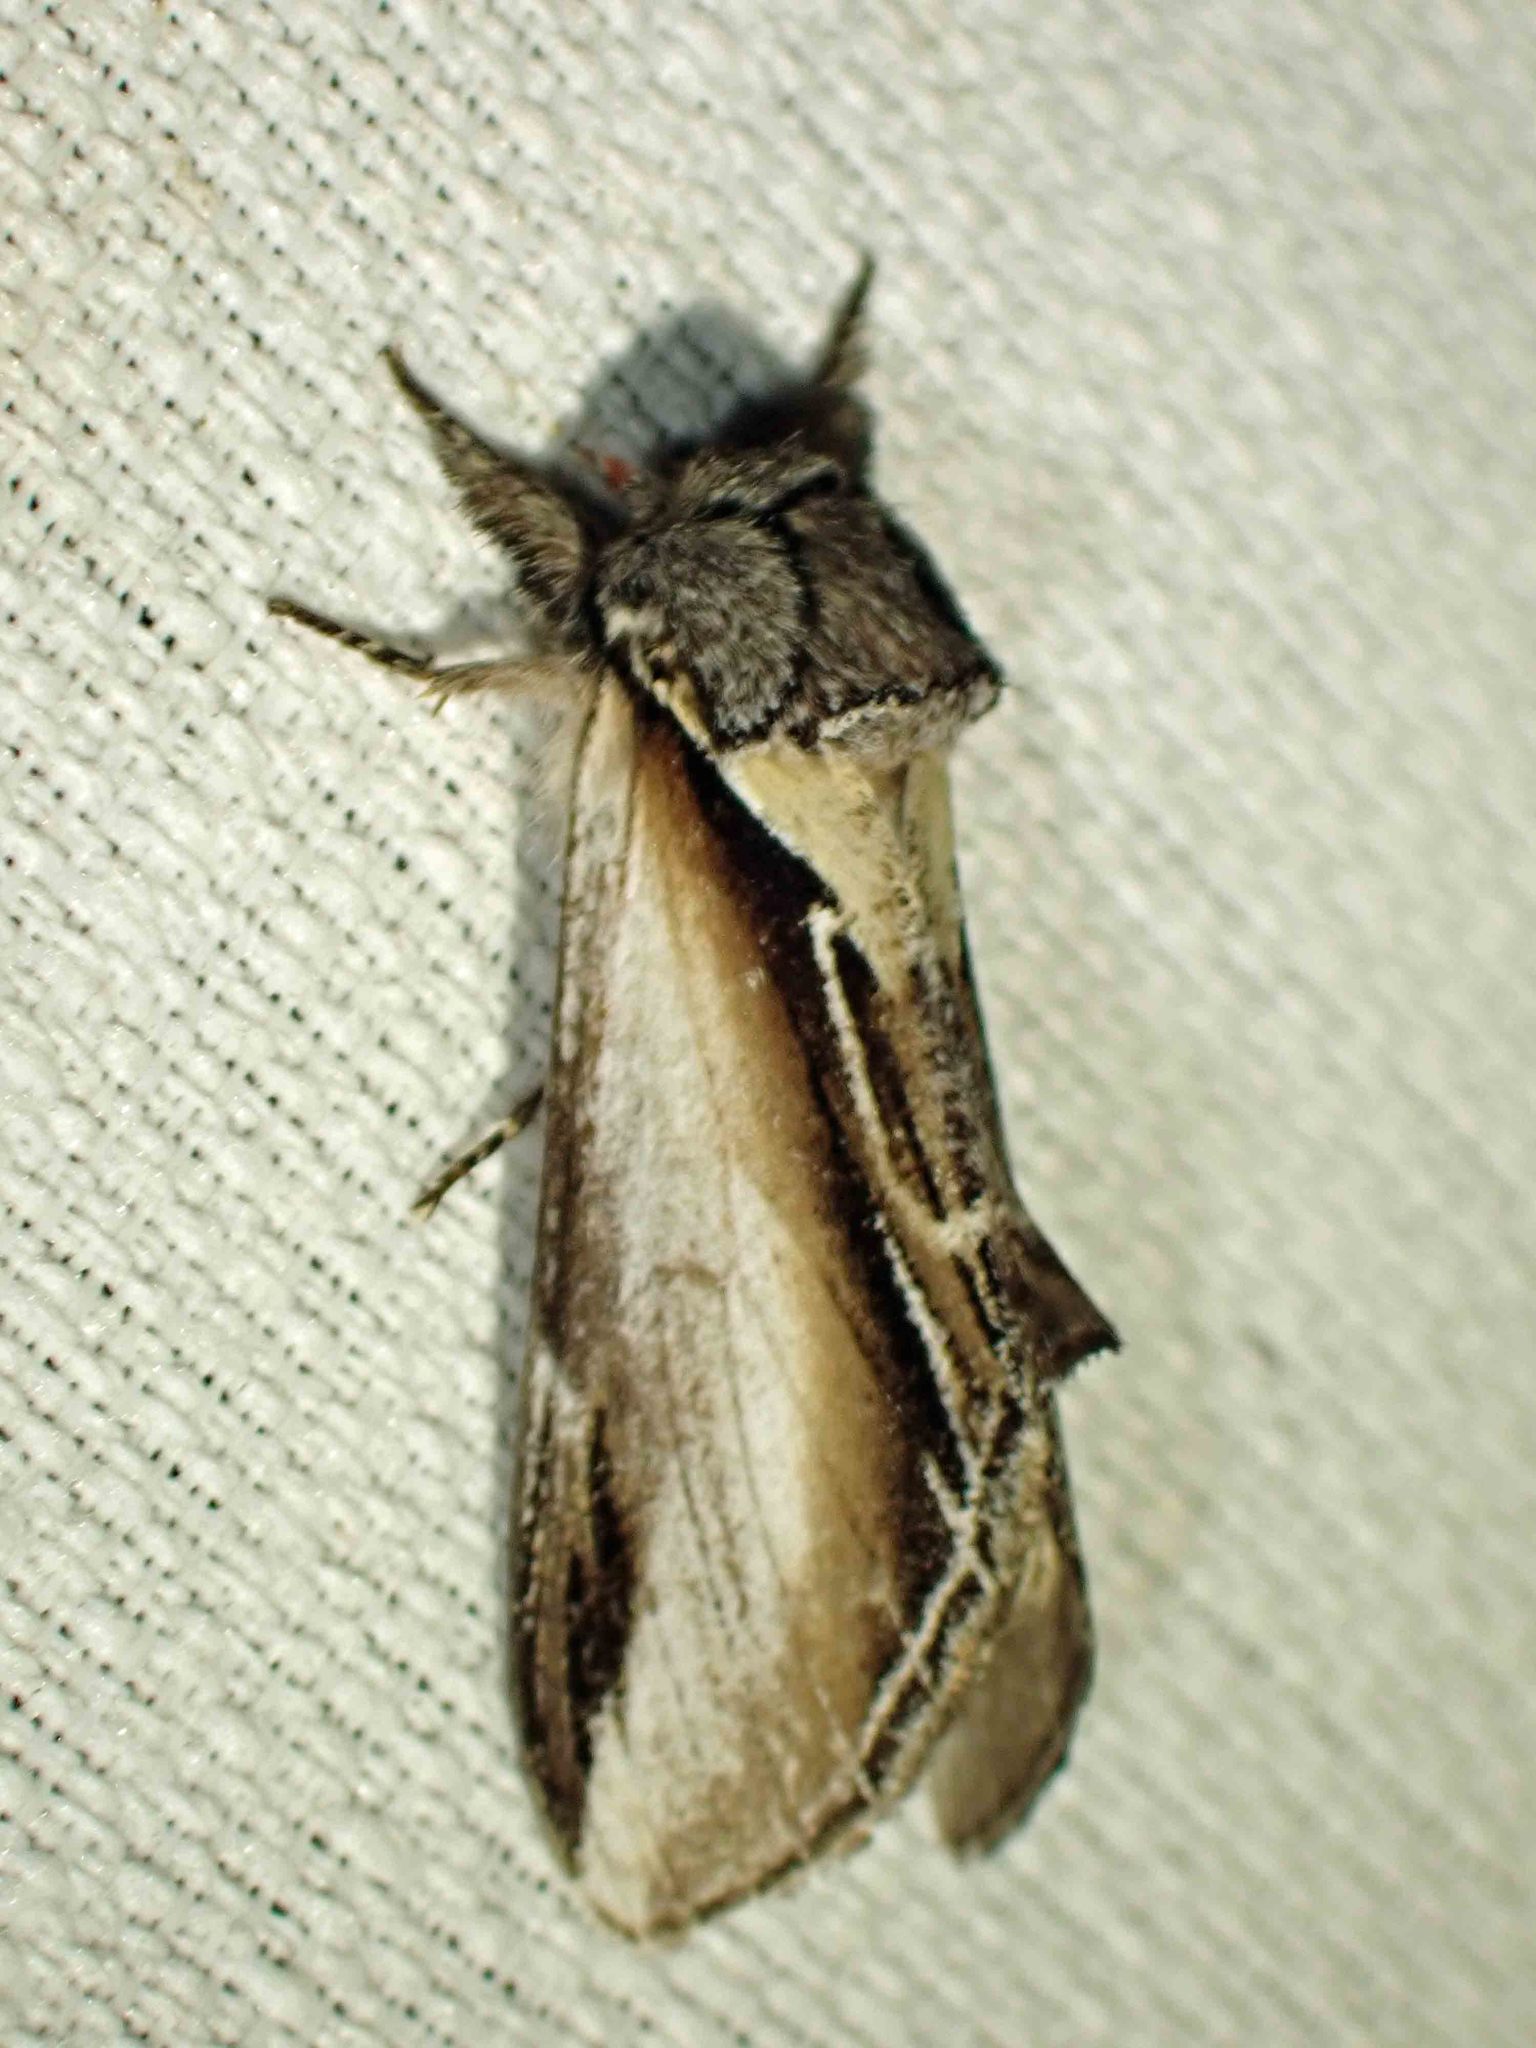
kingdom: Animalia
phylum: Arthropoda
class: Insecta
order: Lepidoptera
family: Notodontidae
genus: Pheosia
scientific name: Pheosia rimosa
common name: Black-rimmed prominent
